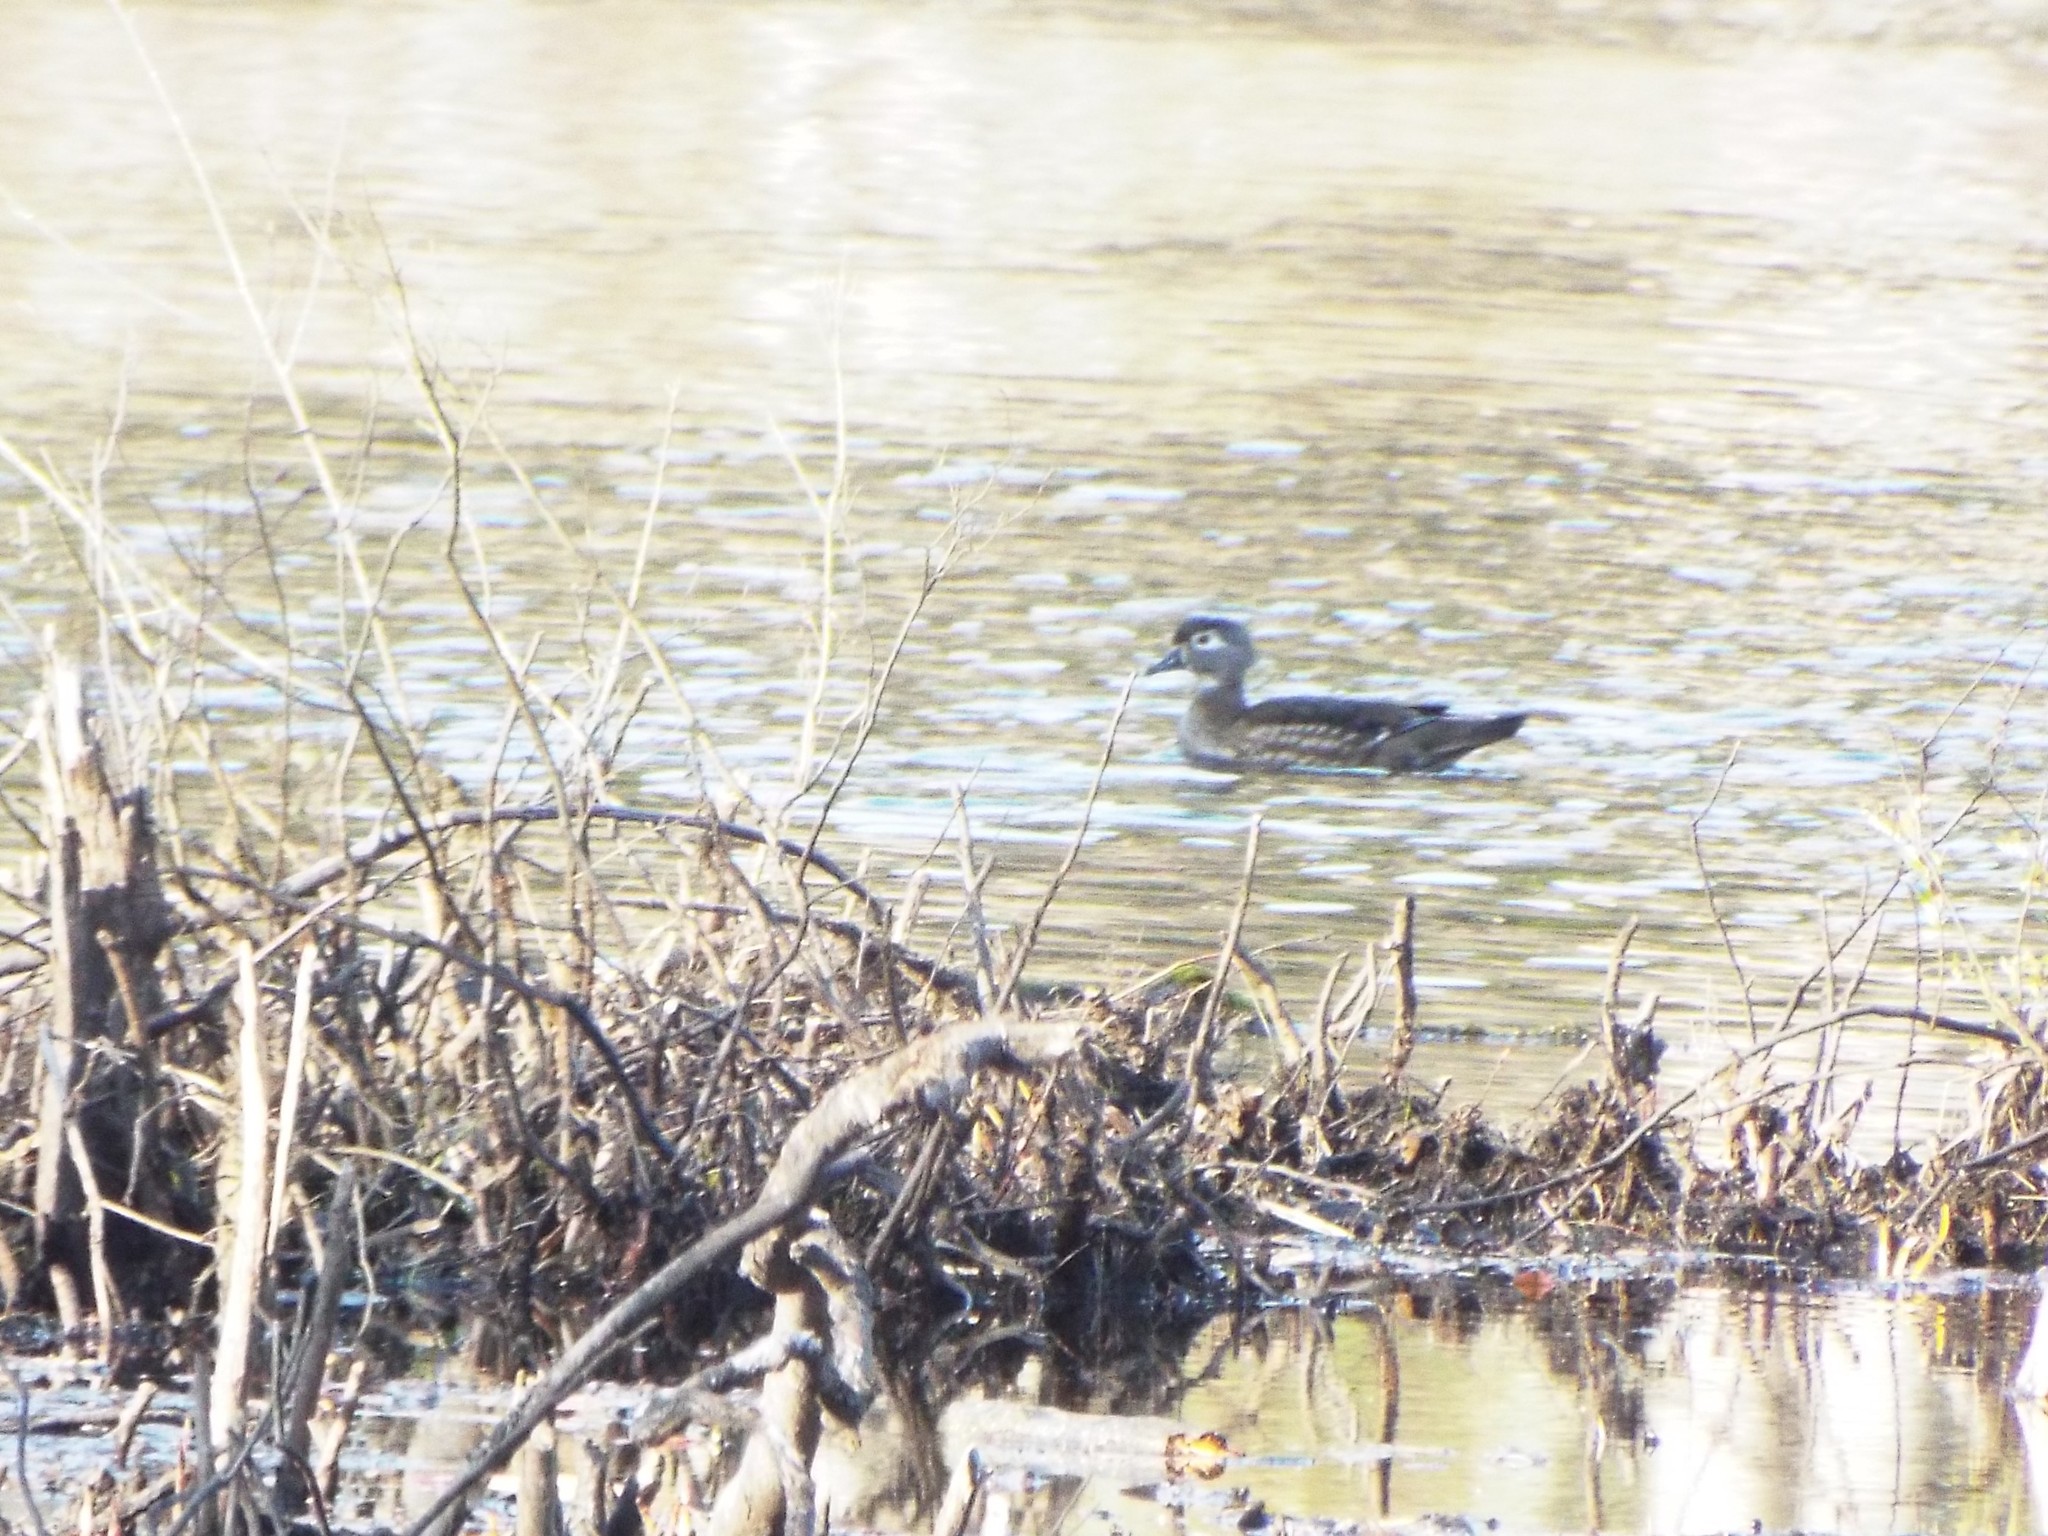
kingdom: Animalia
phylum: Chordata
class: Aves
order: Anseriformes
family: Anatidae
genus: Aix
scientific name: Aix sponsa
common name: Wood duck
